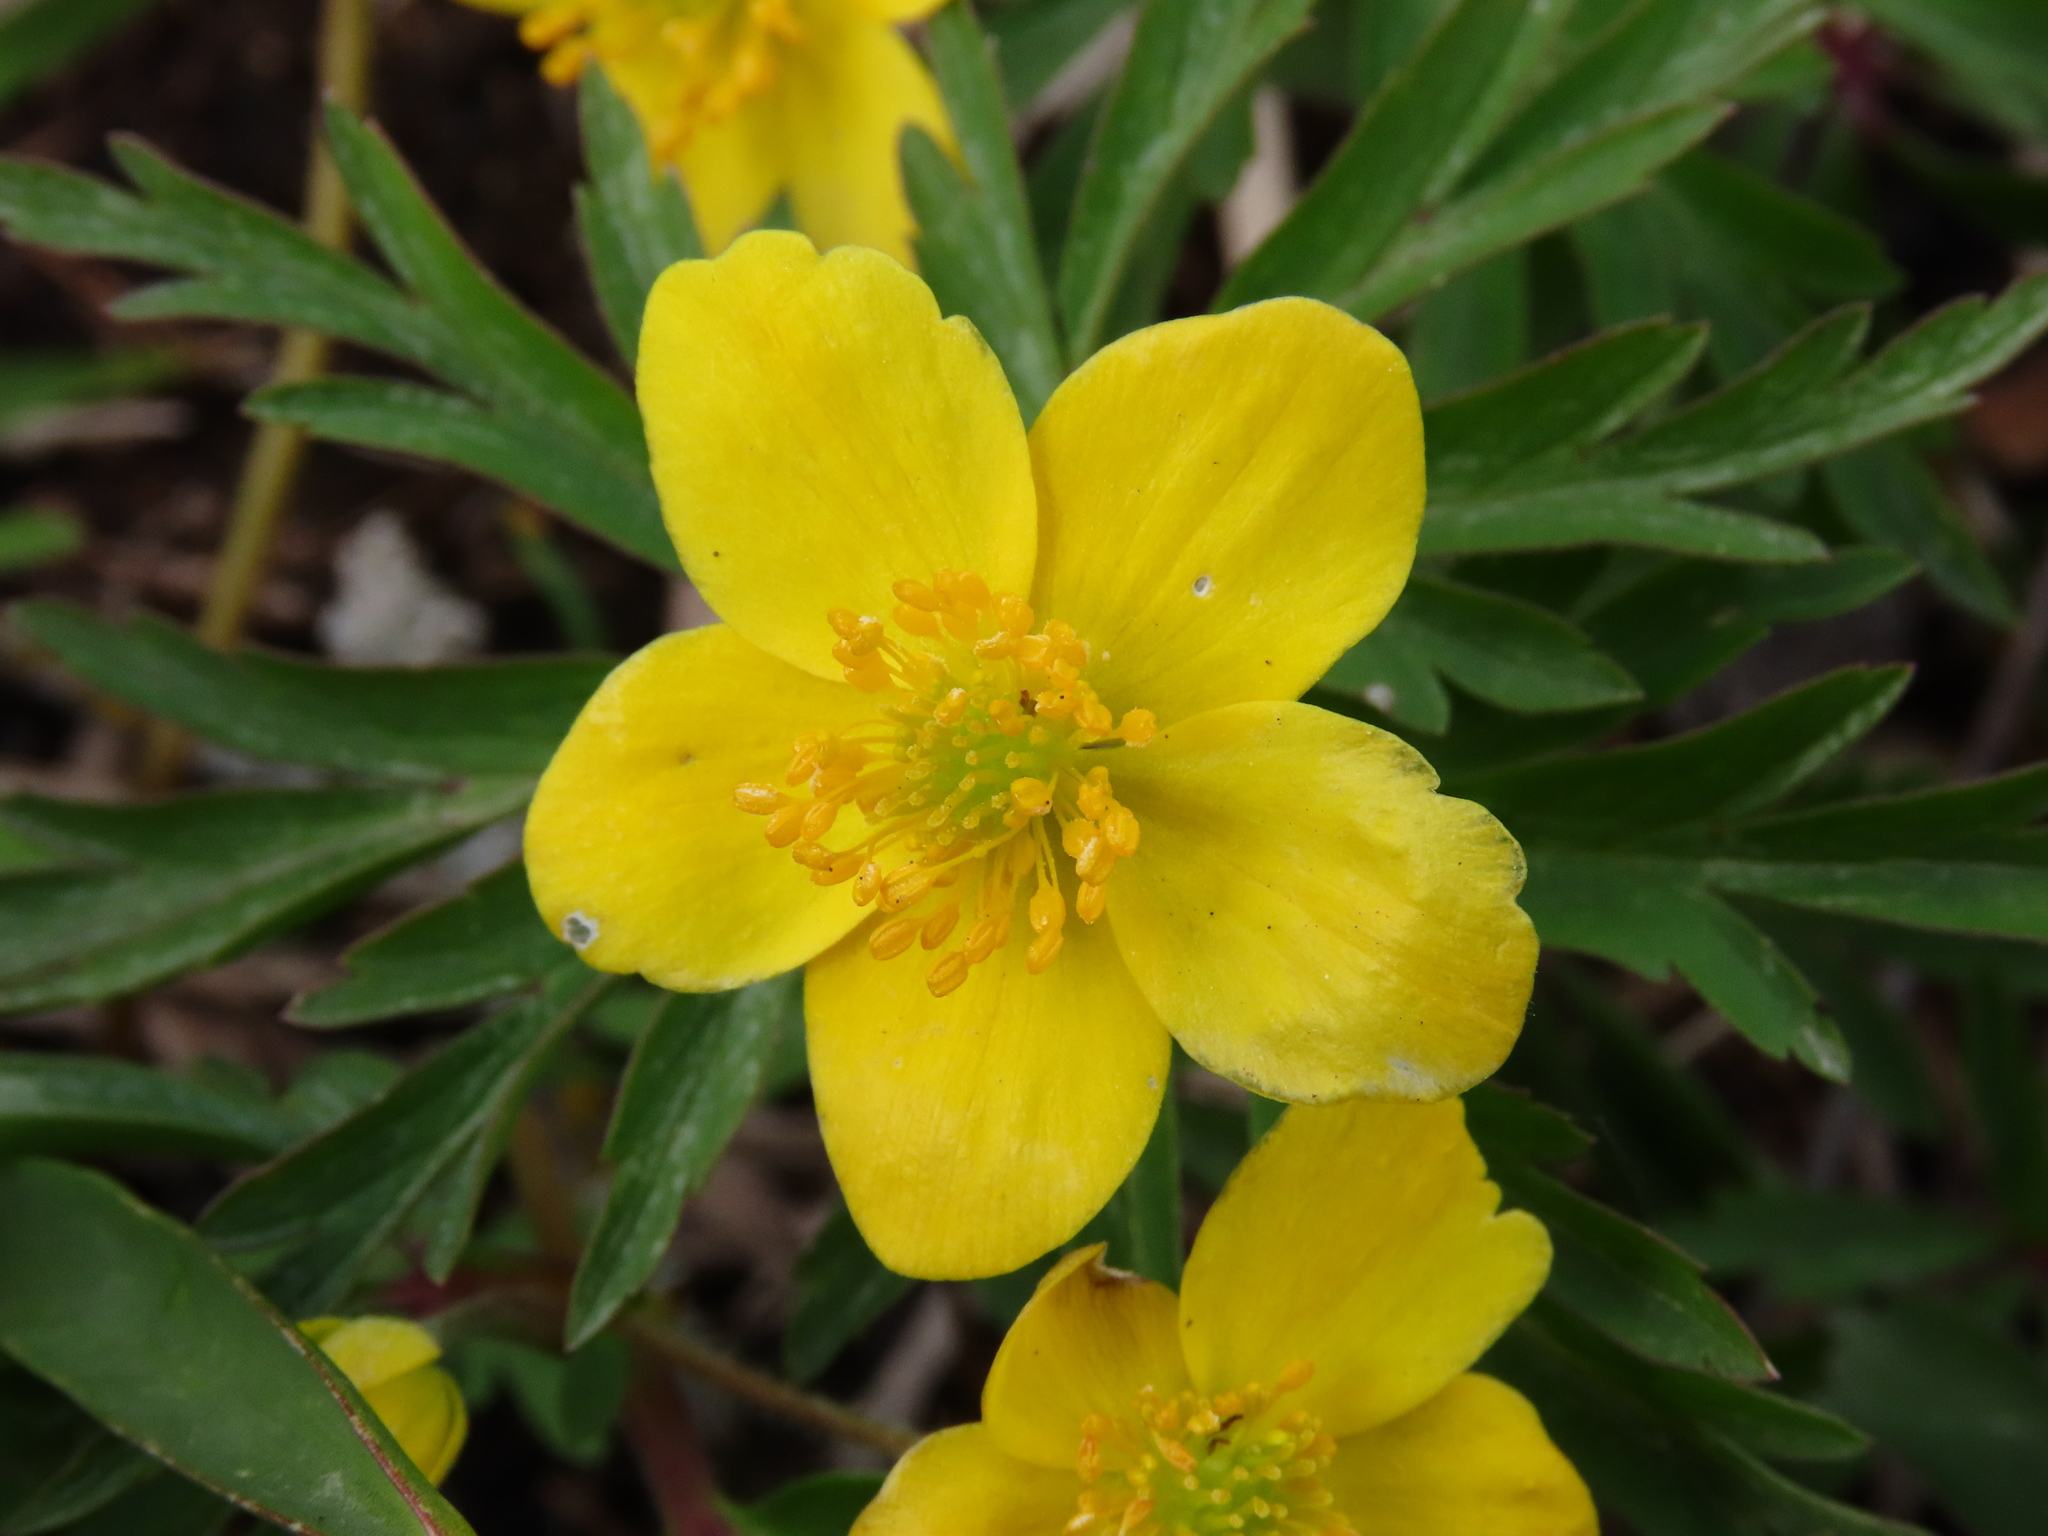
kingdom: Plantae
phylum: Tracheophyta
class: Magnoliopsida
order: Ranunculales
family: Ranunculaceae
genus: Anemone
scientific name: Anemone ranunculoides
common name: Yellow anemone
